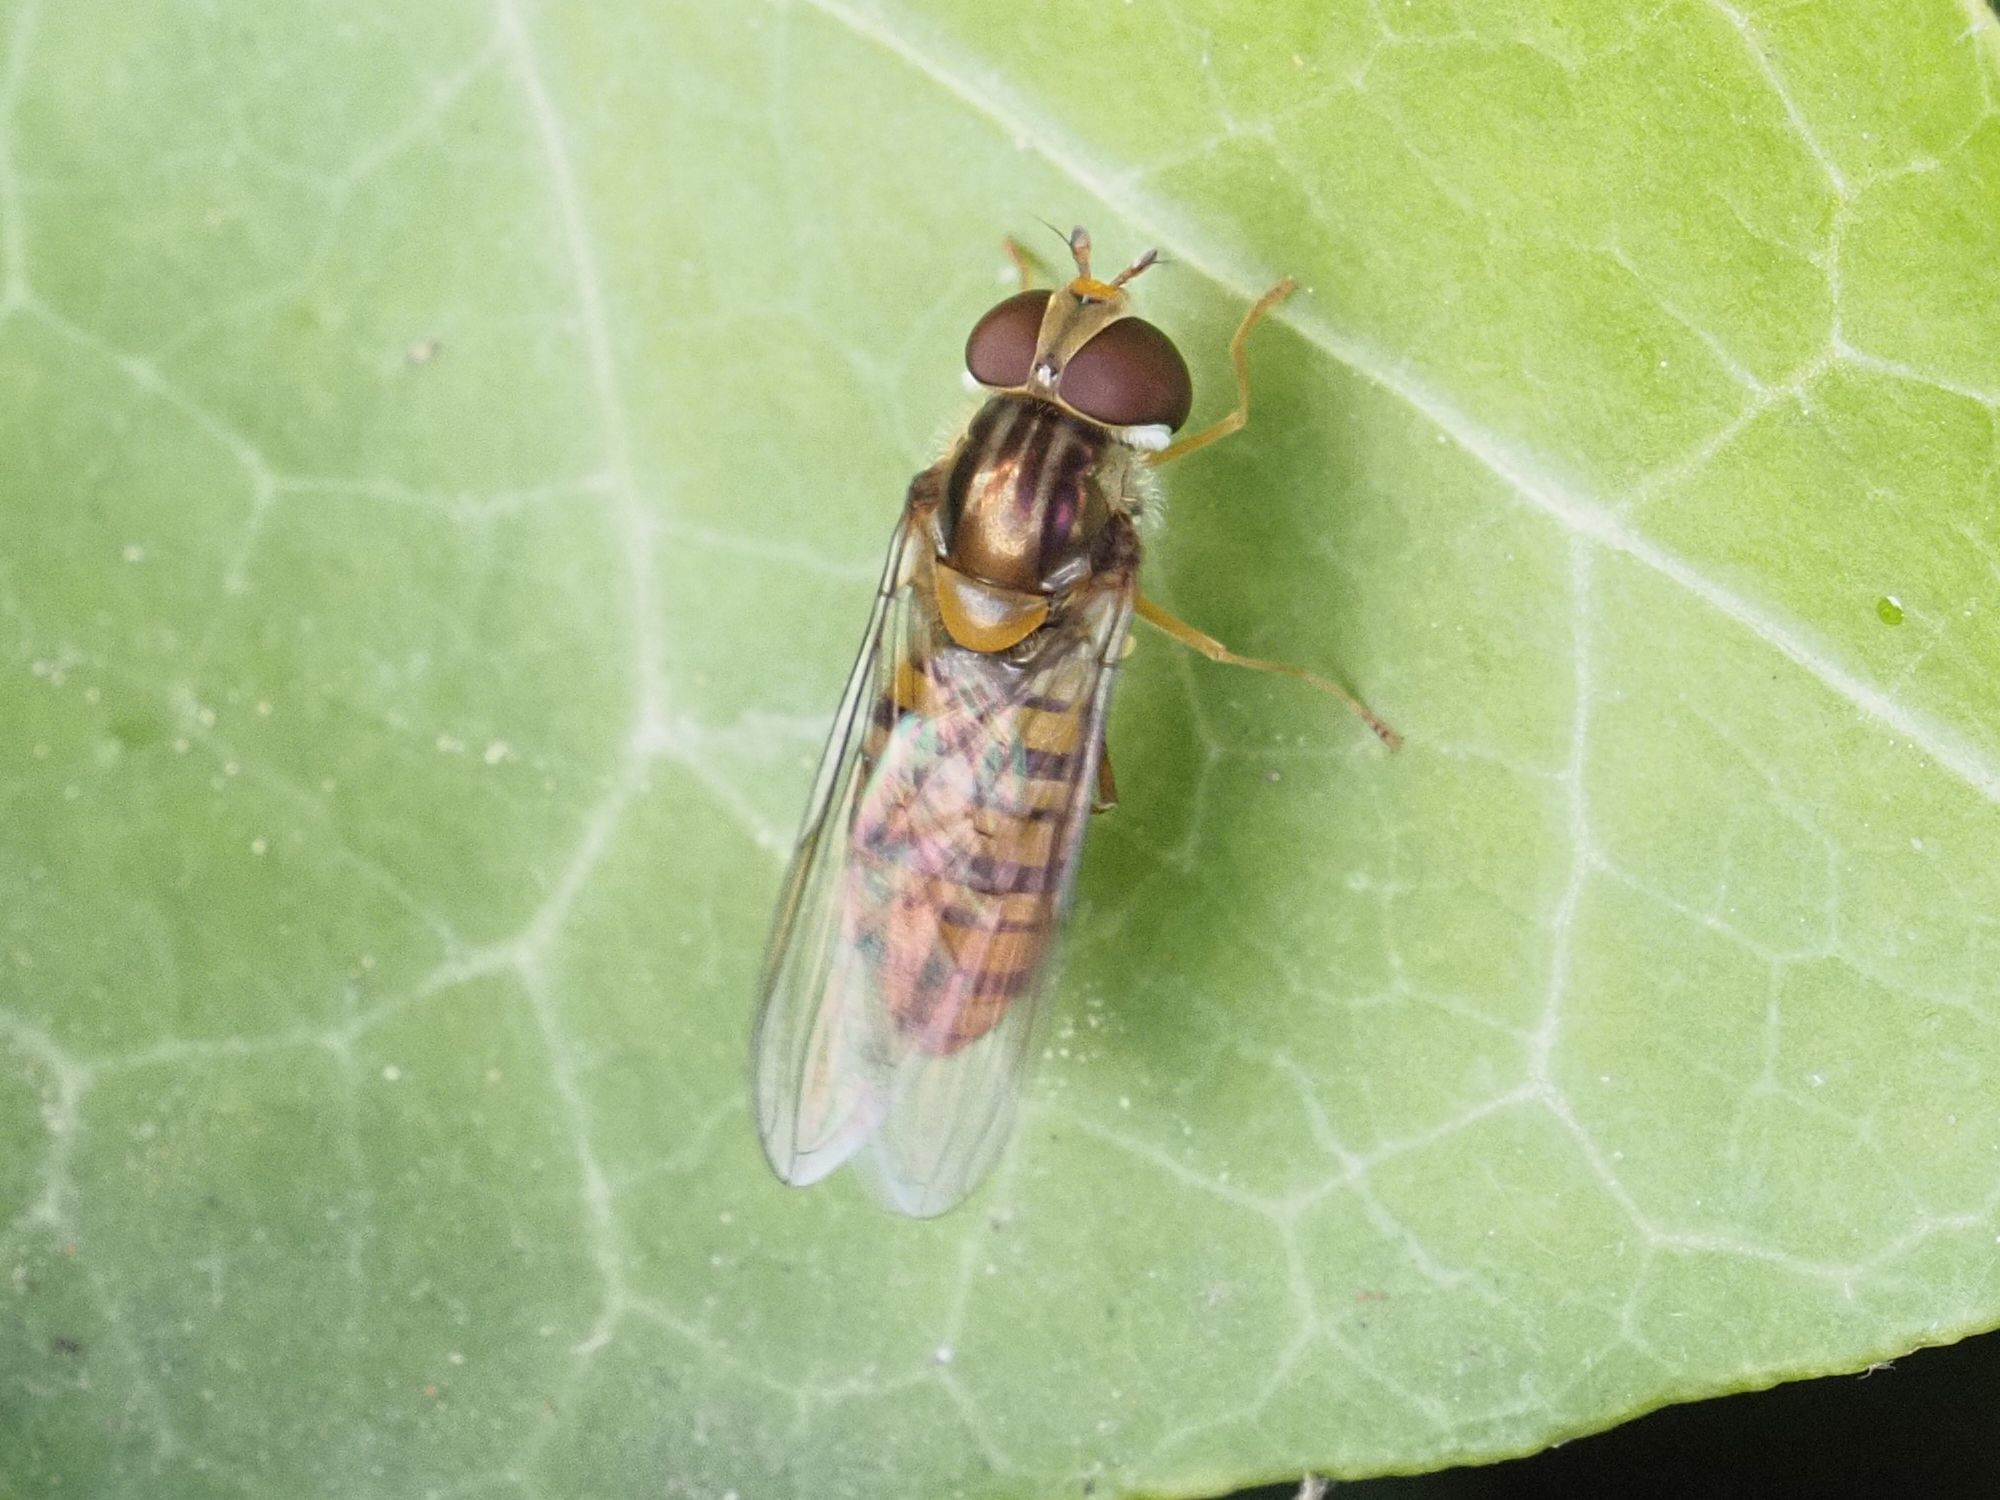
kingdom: Animalia
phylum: Arthropoda
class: Insecta
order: Diptera
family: Syrphidae
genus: Episyrphus
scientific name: Episyrphus balteatus
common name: Marmalade hoverfly
